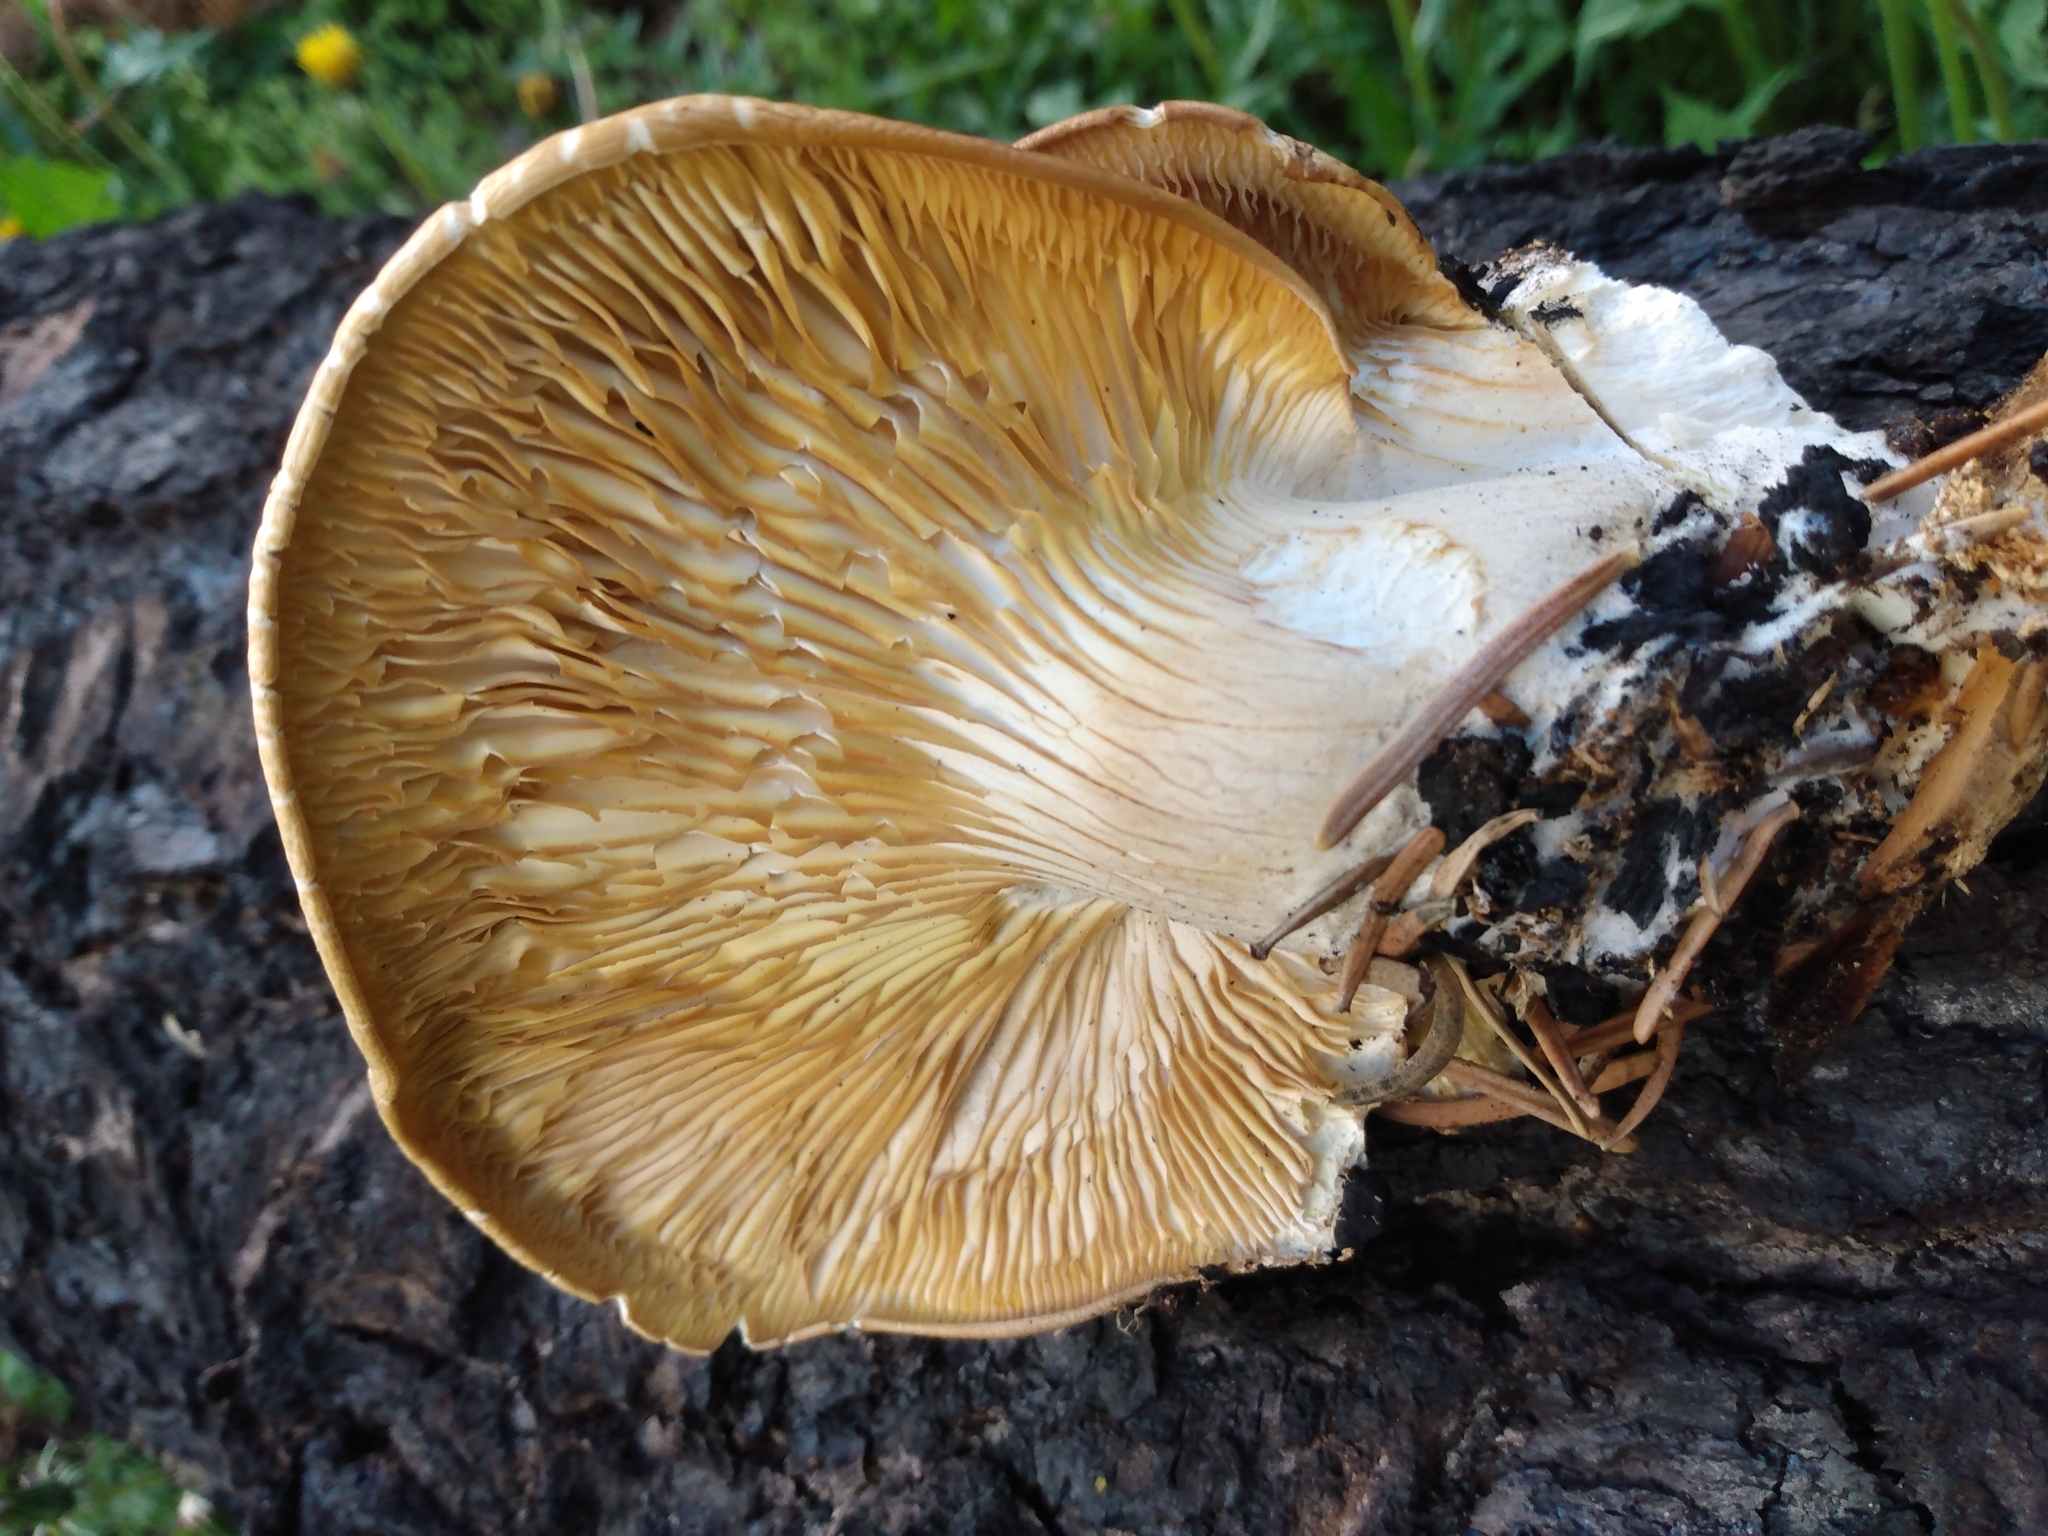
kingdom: Fungi
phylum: Basidiomycota
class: Agaricomycetes
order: Agaricales
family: Pleurotaceae
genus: Pleurotus
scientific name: Pleurotus pulmonarius
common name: Pale oyster
